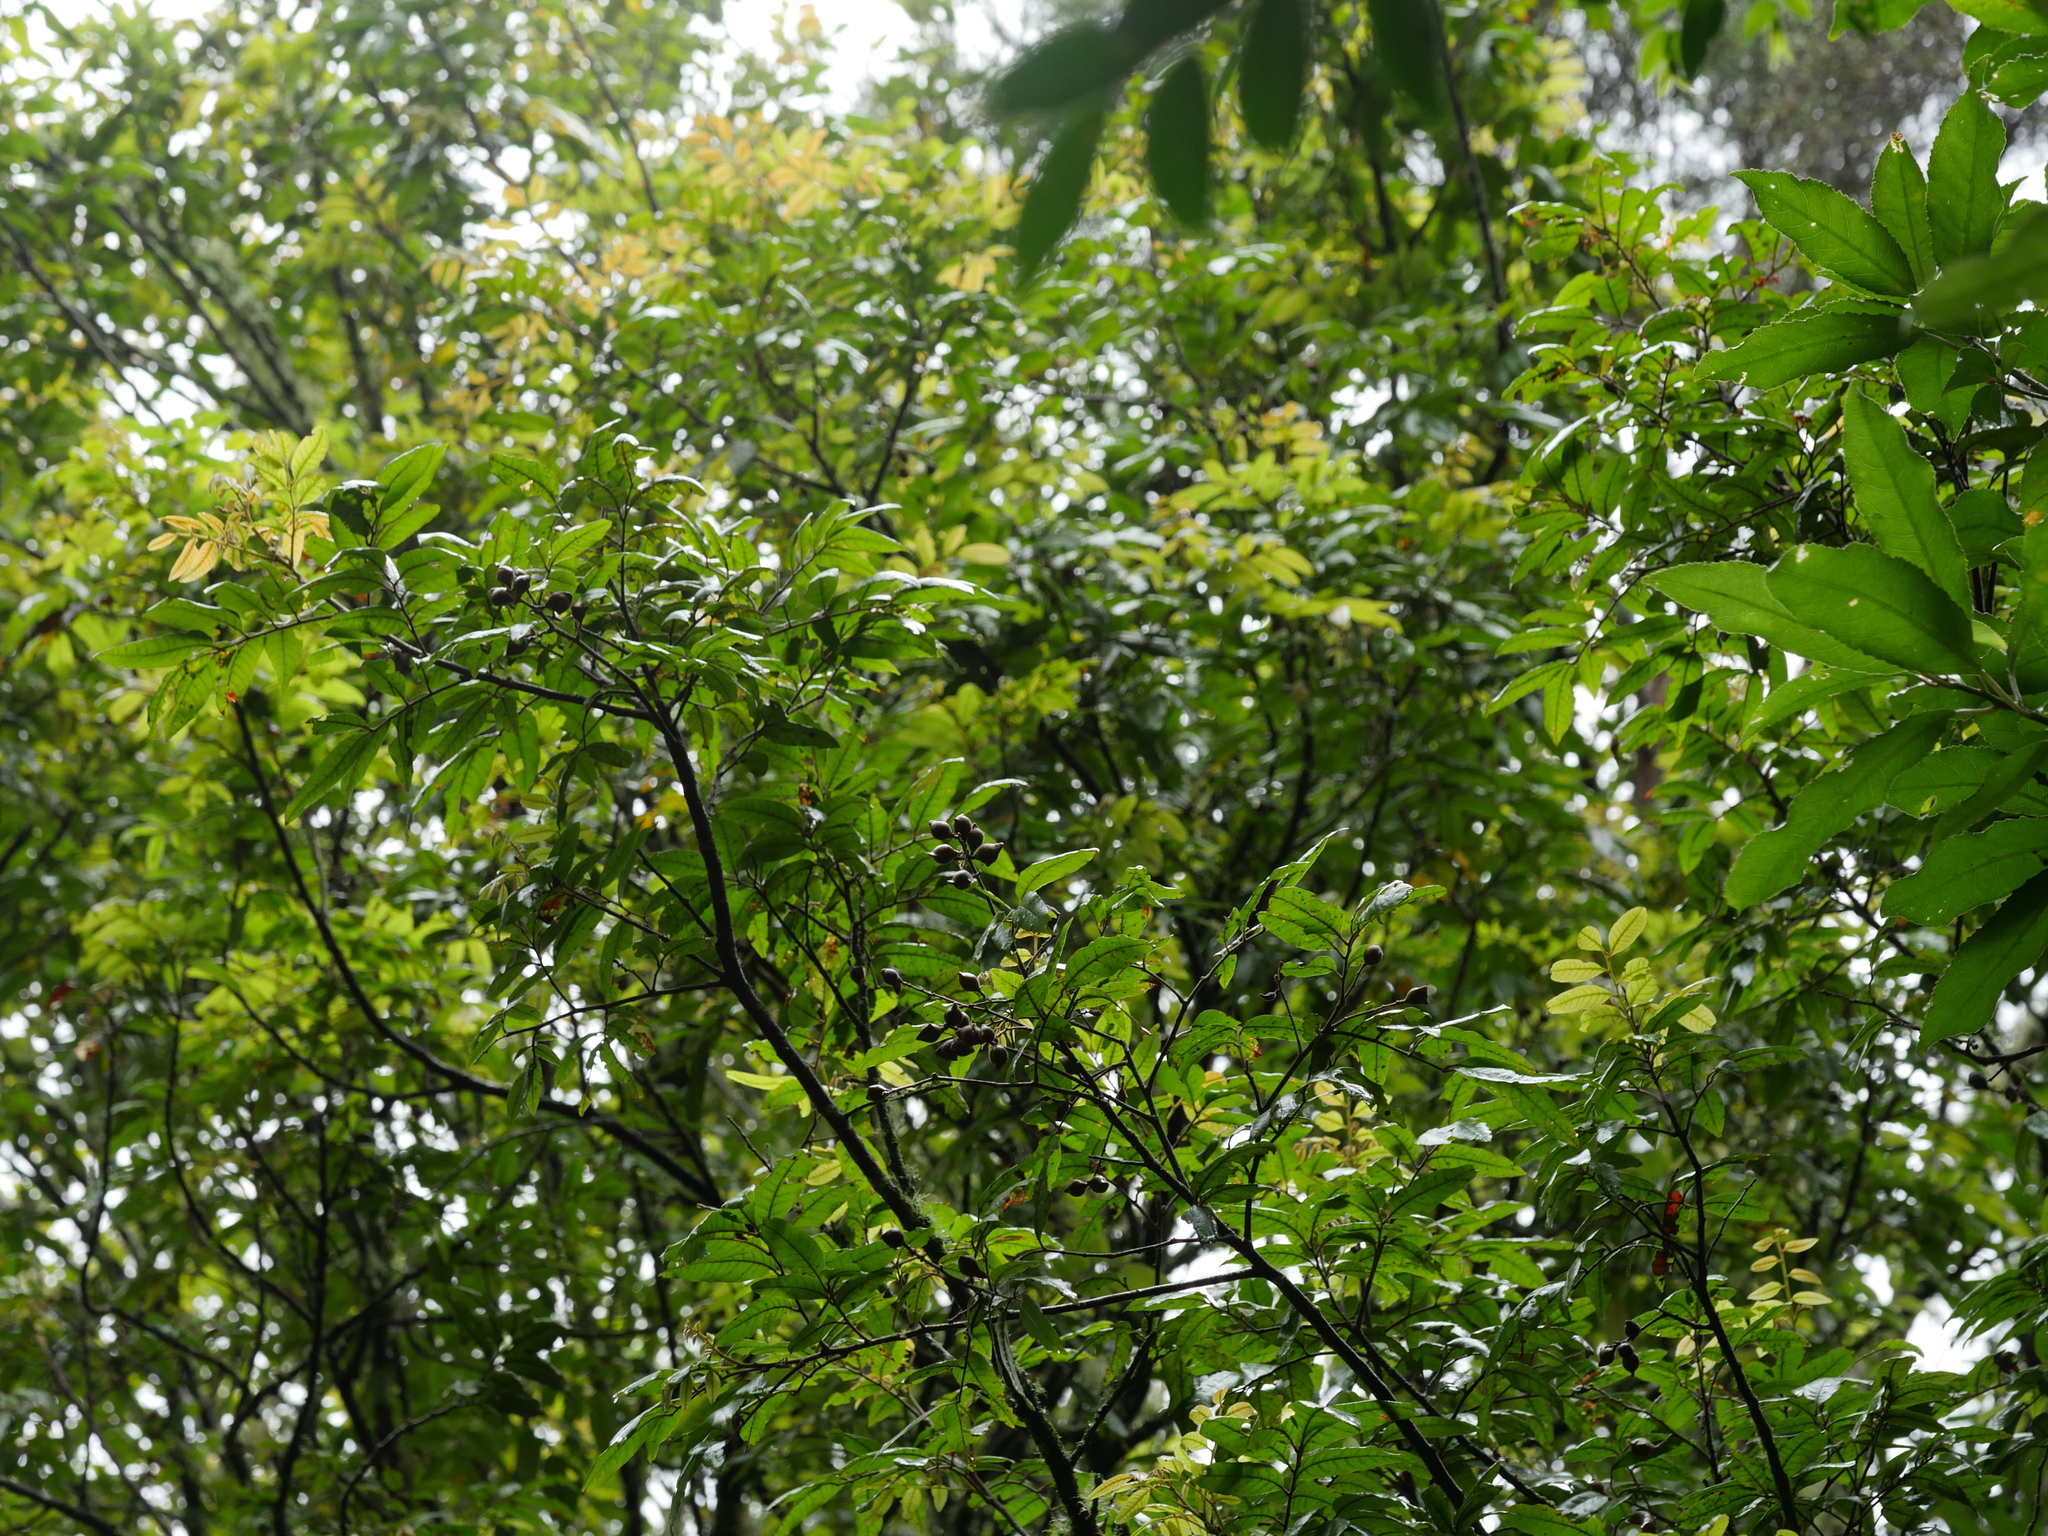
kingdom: Plantae
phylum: Tracheophyta
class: Magnoliopsida
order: Sapindales
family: Sapindaceae
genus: Alectryon
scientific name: Alectryon excelsus
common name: Three kings titoki
